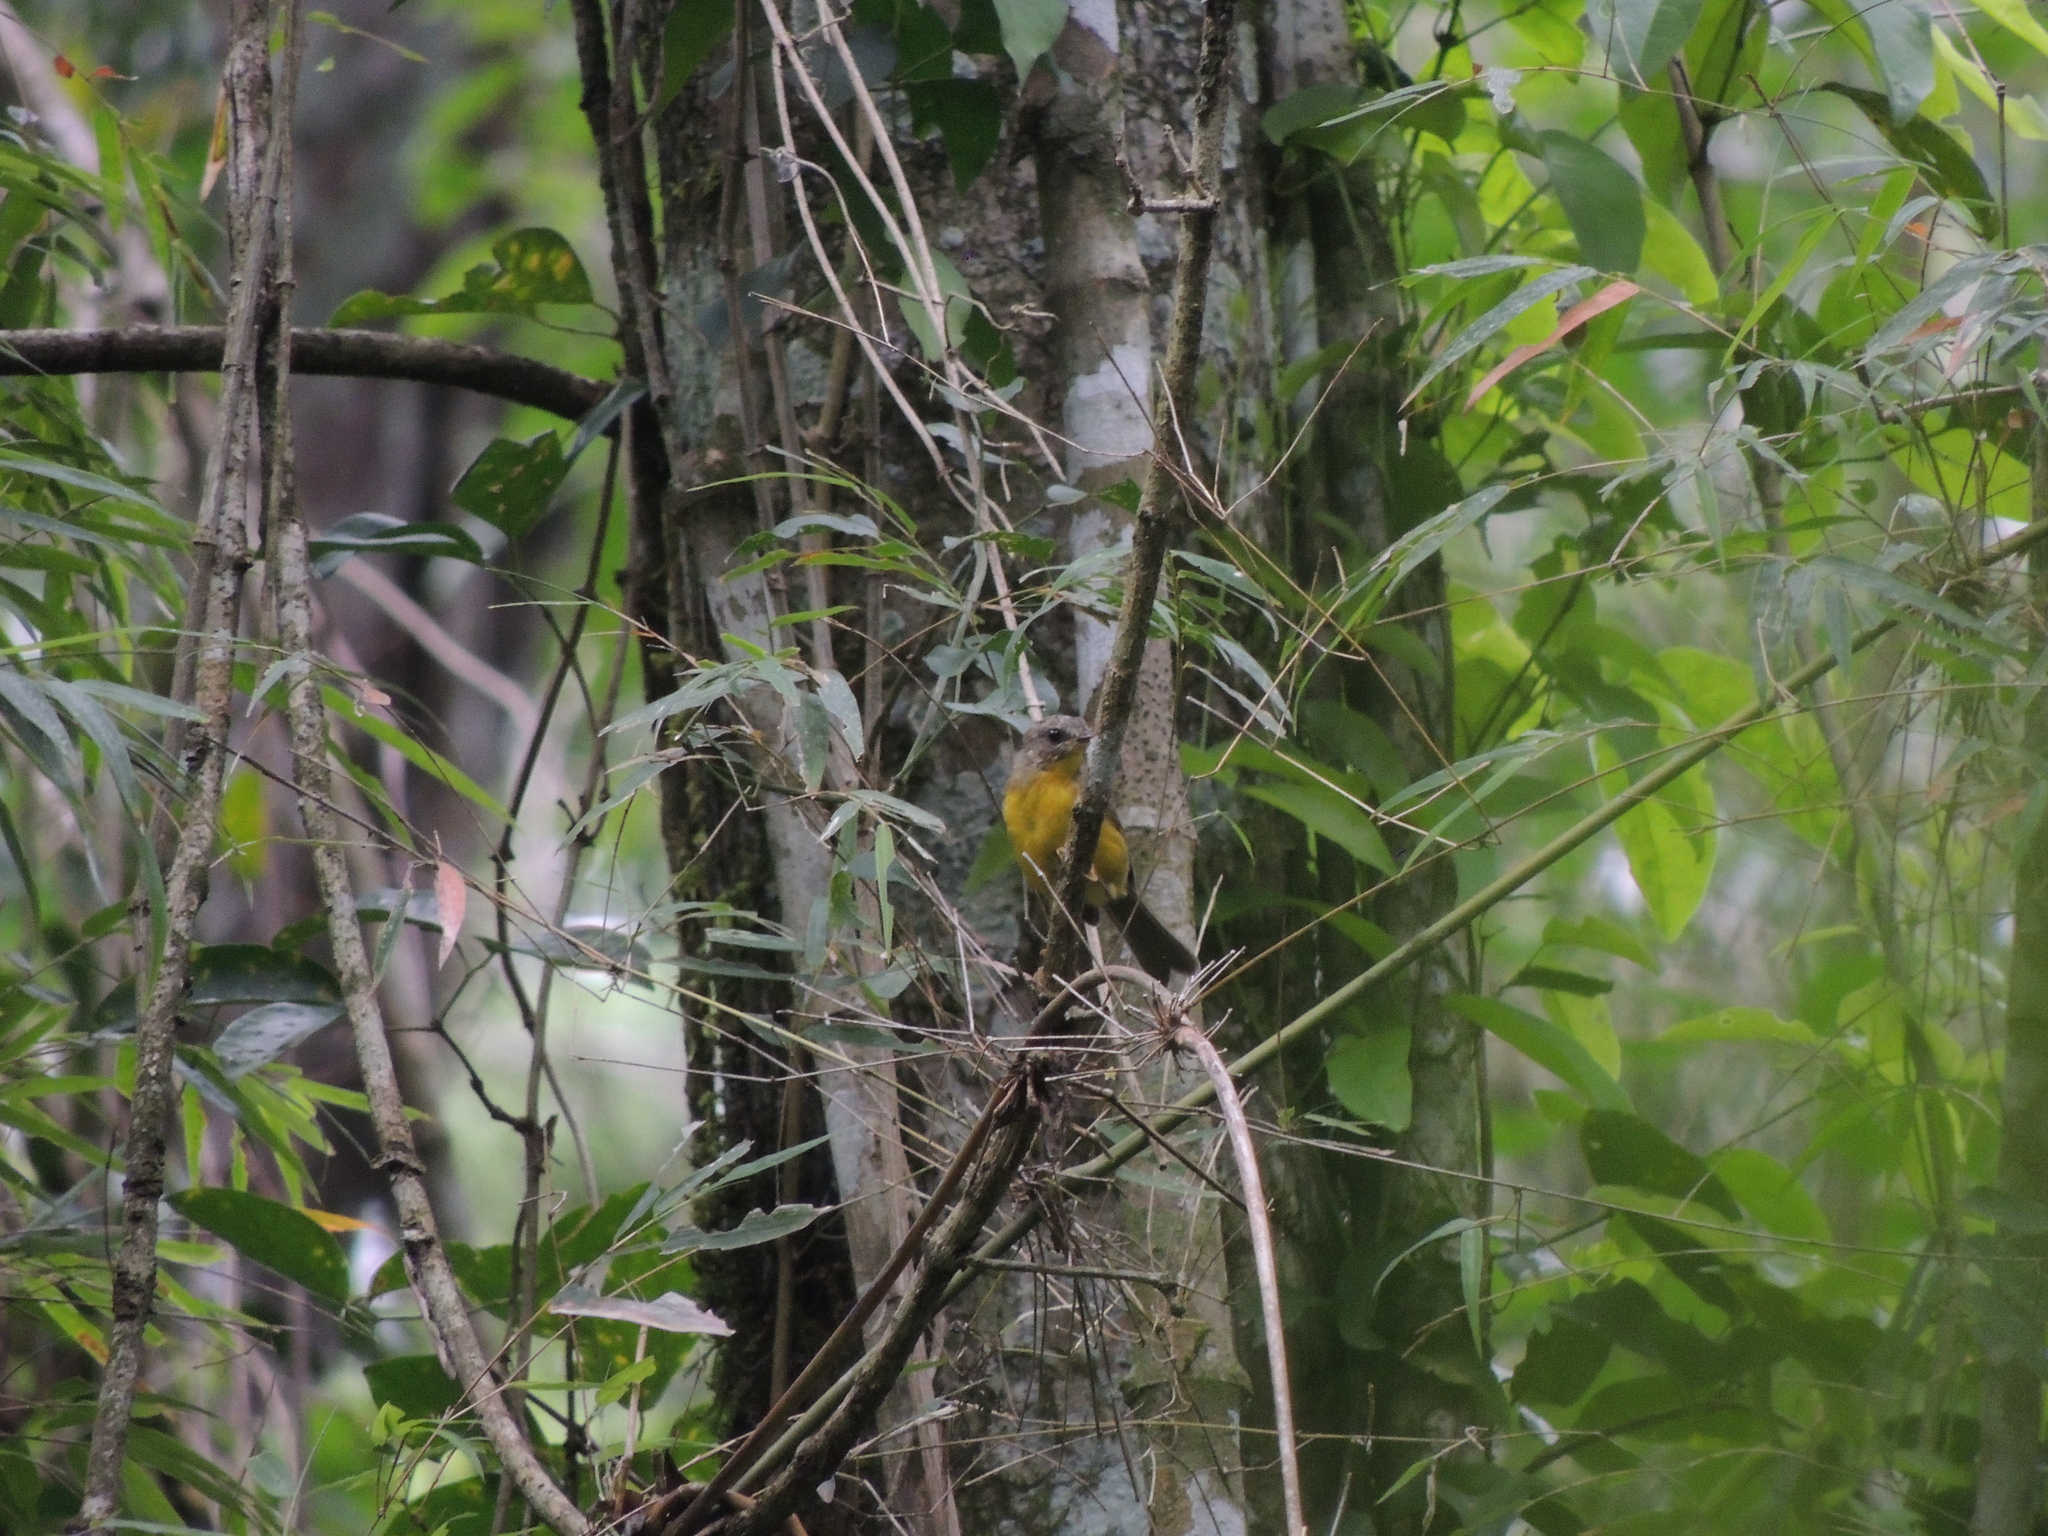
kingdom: Animalia
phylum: Chordata
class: Aves
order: Passeriformes
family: Parulidae
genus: Basileuterus
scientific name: Basileuterus culicivorus
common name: Golden-crowned warbler
